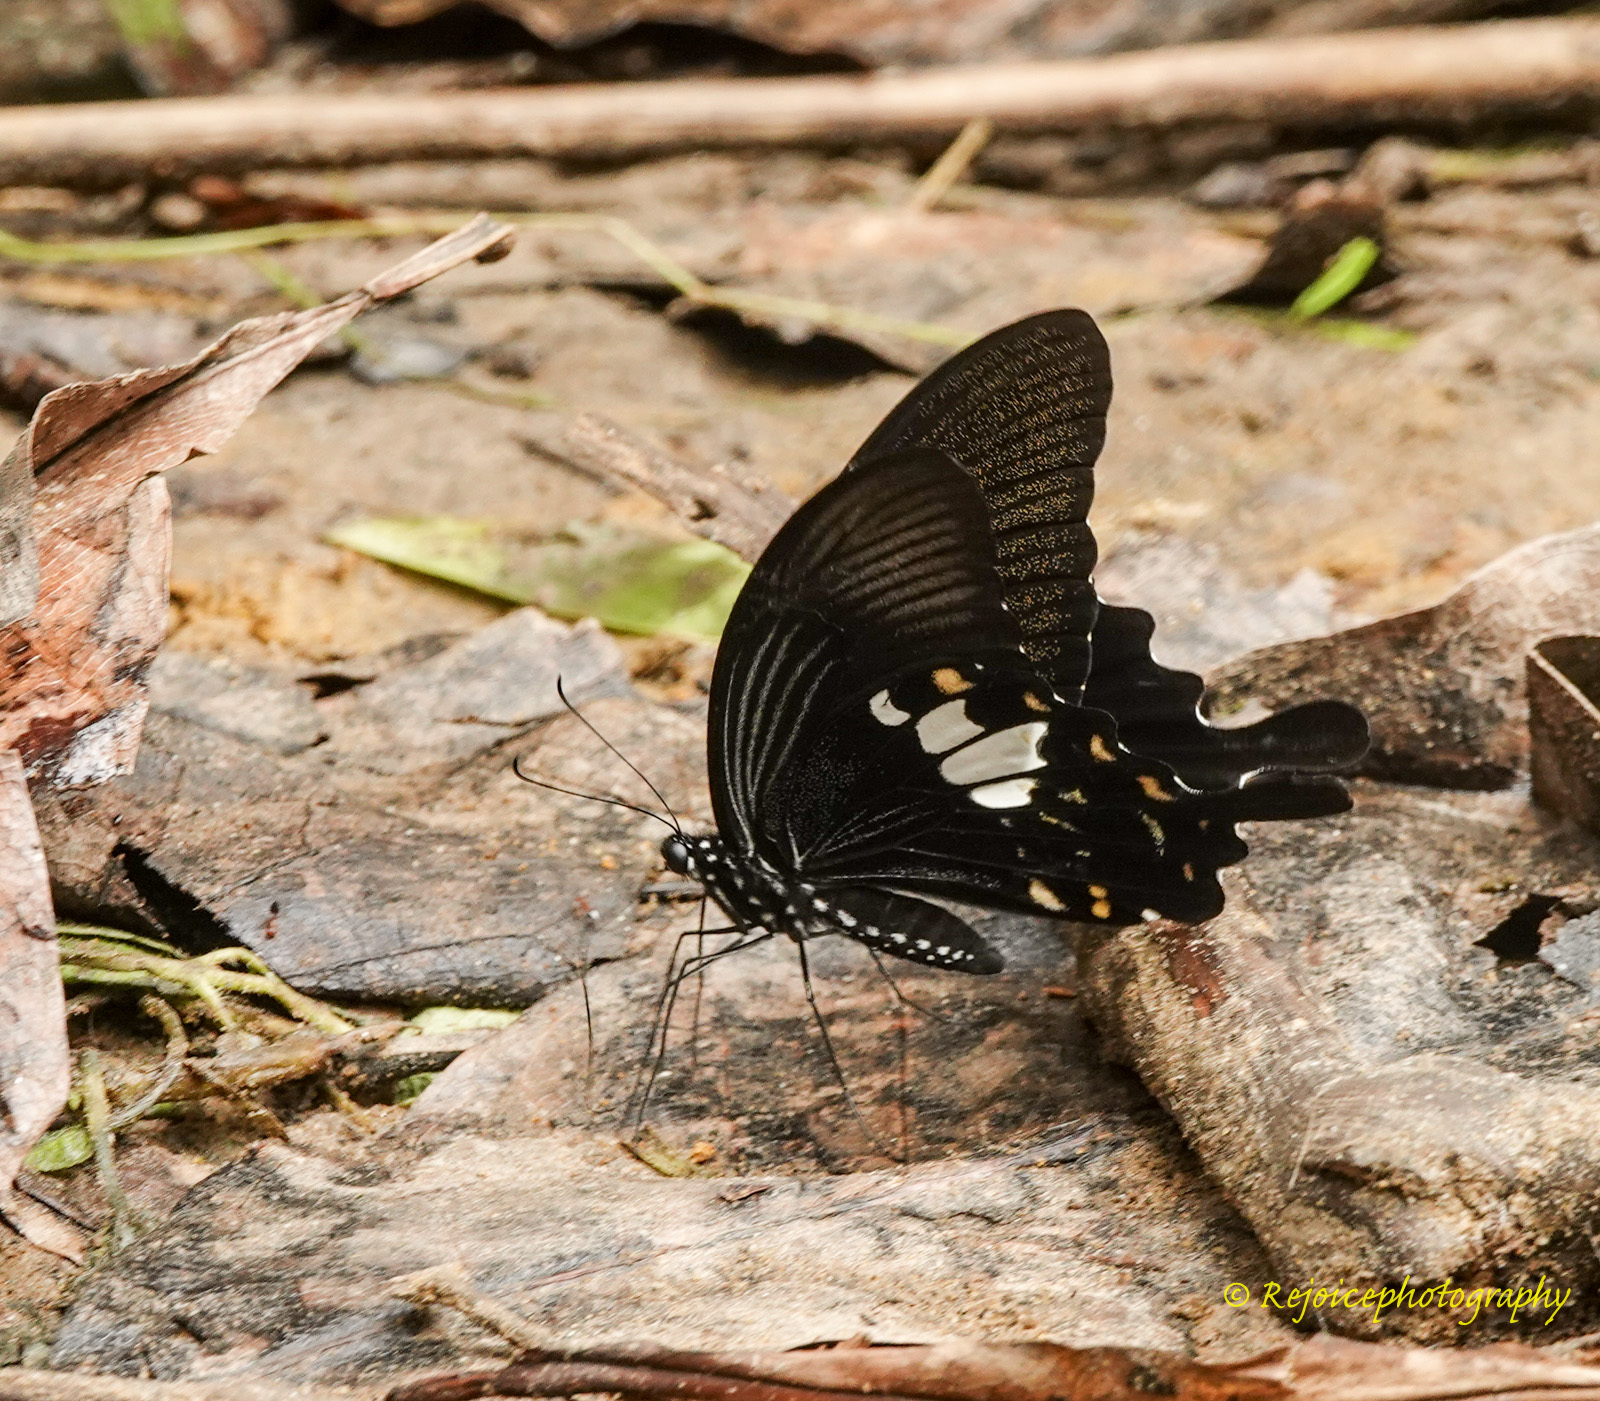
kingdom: Animalia
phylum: Arthropoda
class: Insecta
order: Lepidoptera
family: Papilionidae
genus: Papilio
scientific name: Papilio nephelus
